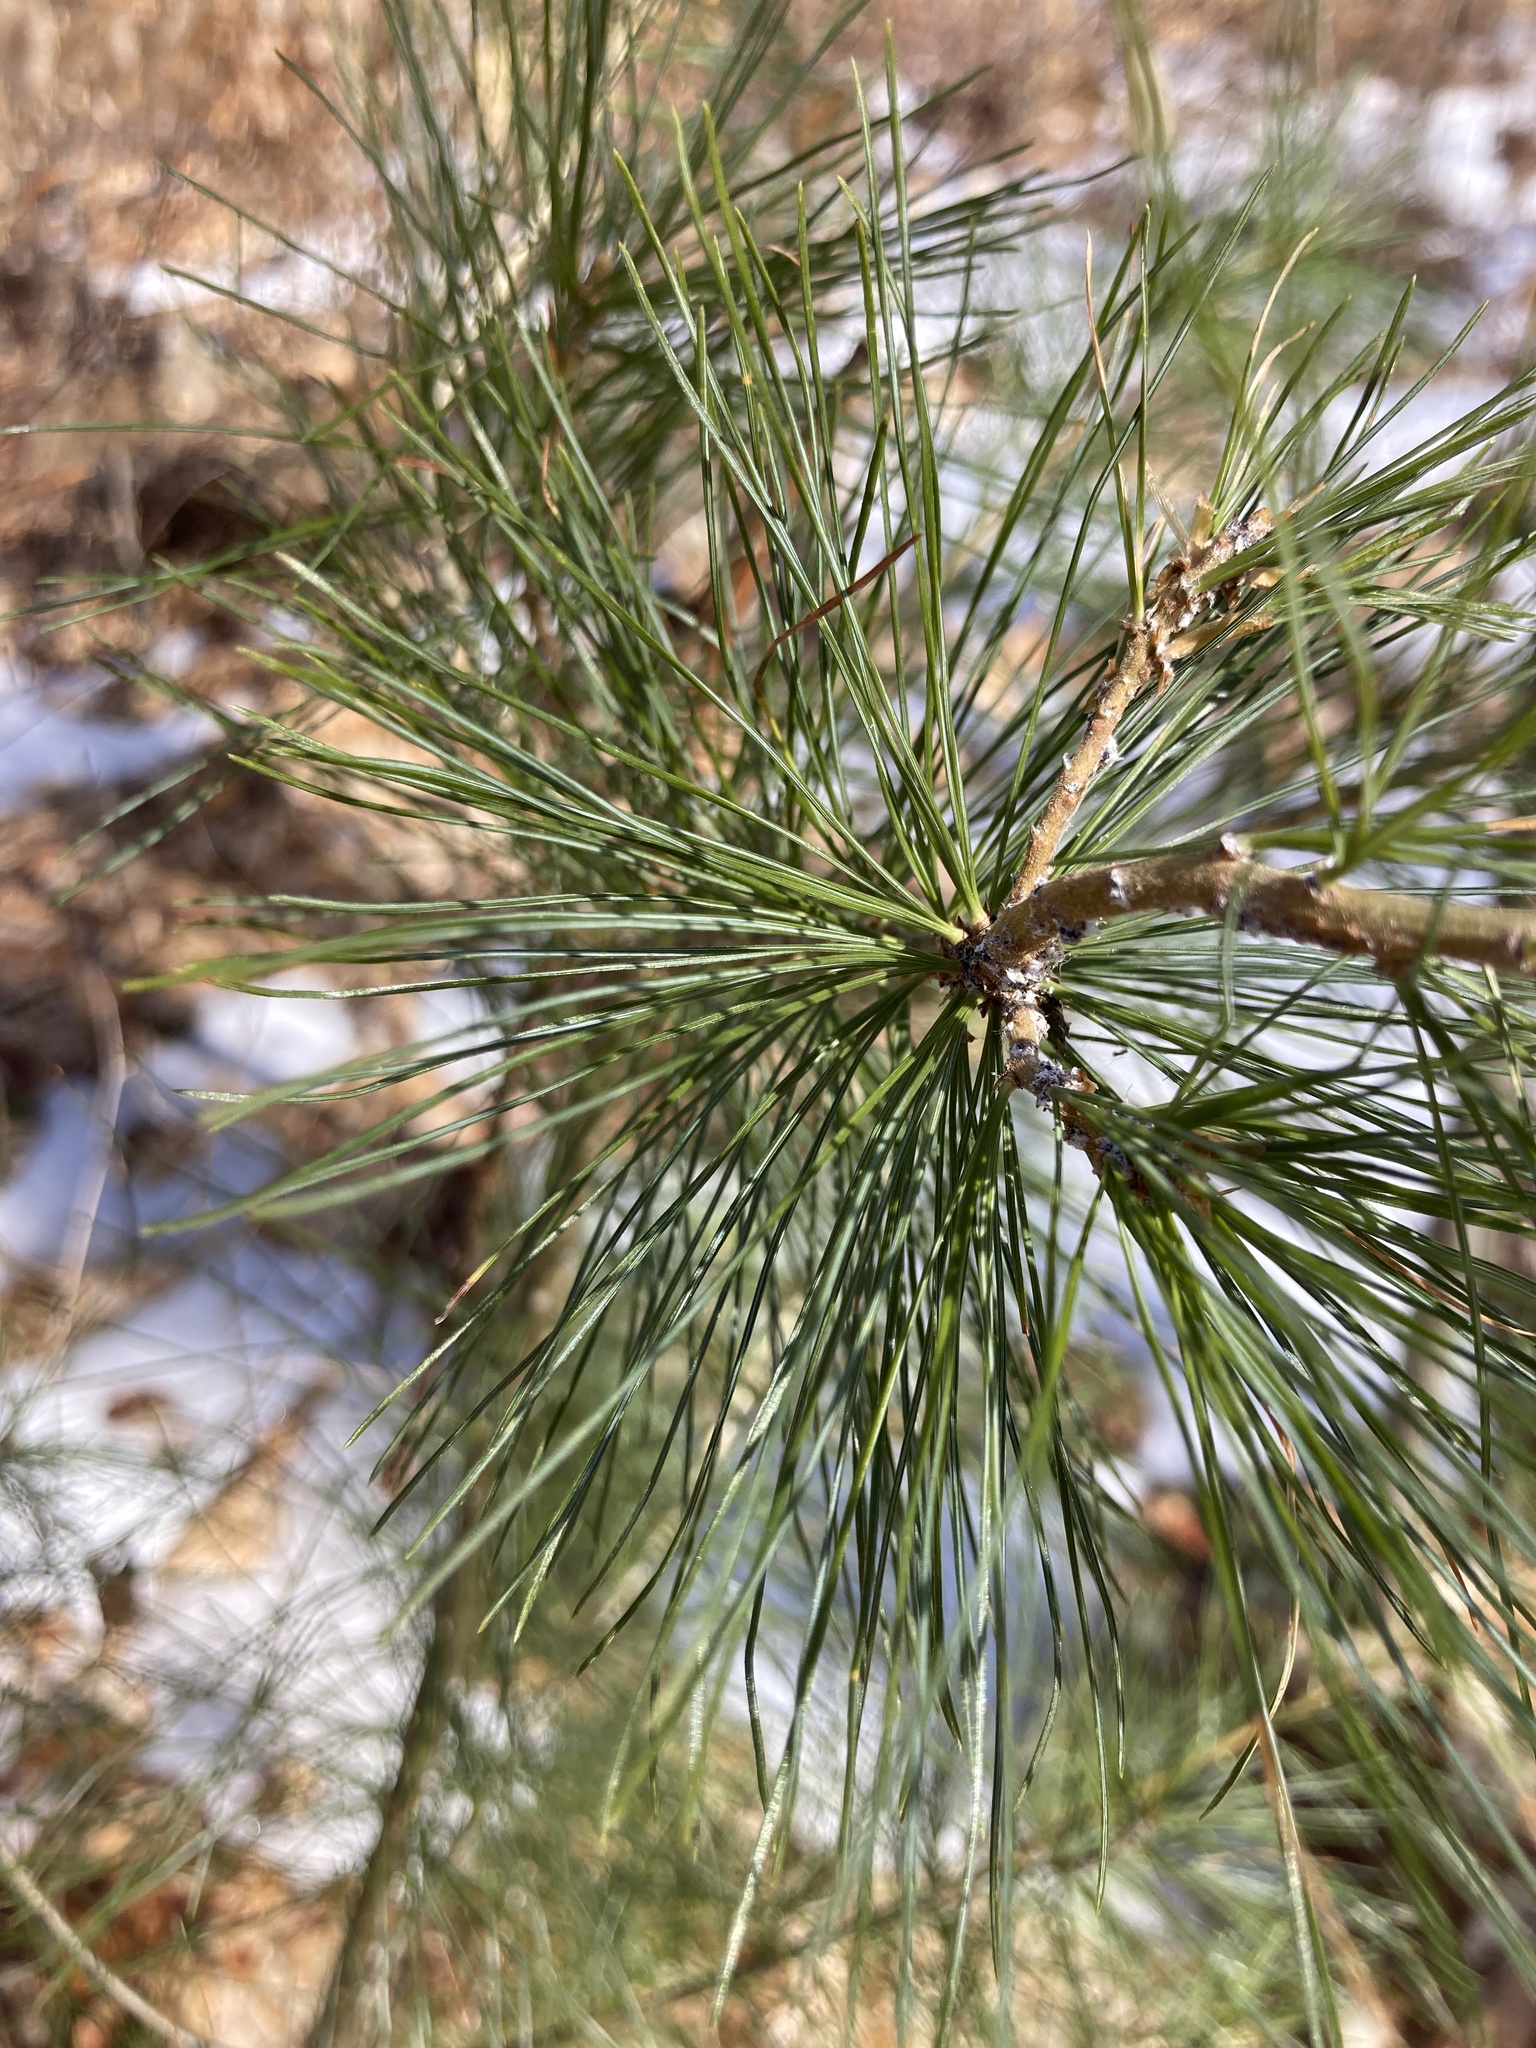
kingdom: Plantae
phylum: Tracheophyta
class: Pinopsida
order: Pinales
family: Pinaceae
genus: Pinus
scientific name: Pinus strobus
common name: Weymouth pine
